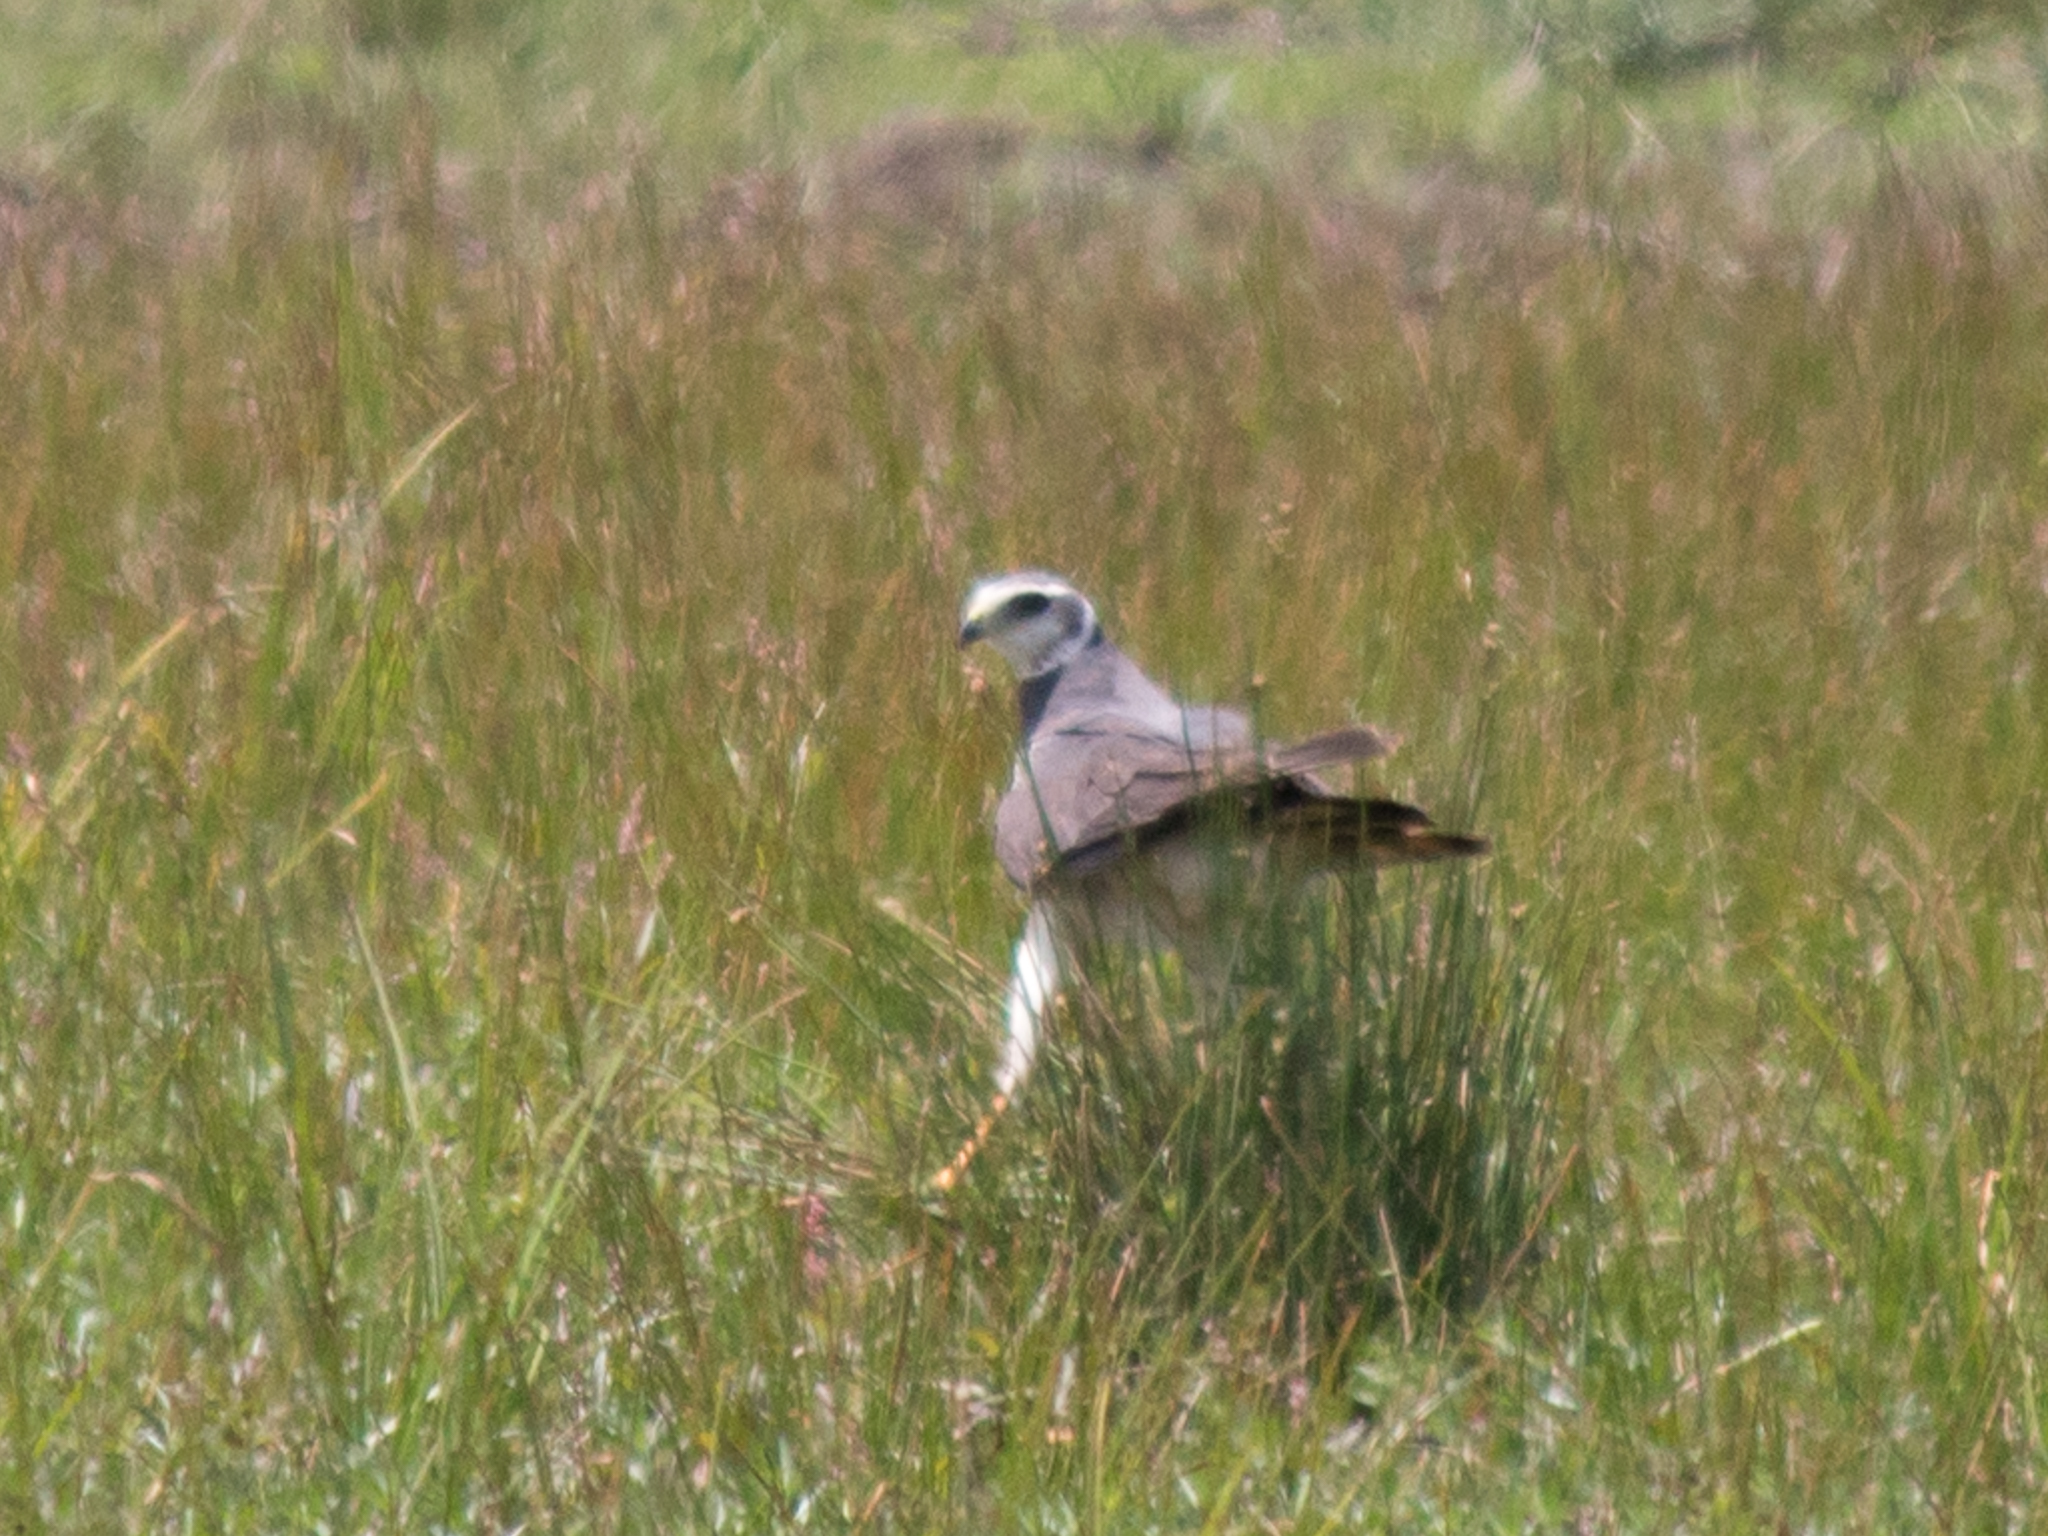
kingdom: Animalia
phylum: Chordata
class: Aves
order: Accipitriformes
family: Accipitridae
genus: Circus
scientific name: Circus buffoni
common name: Long-winged harrier
